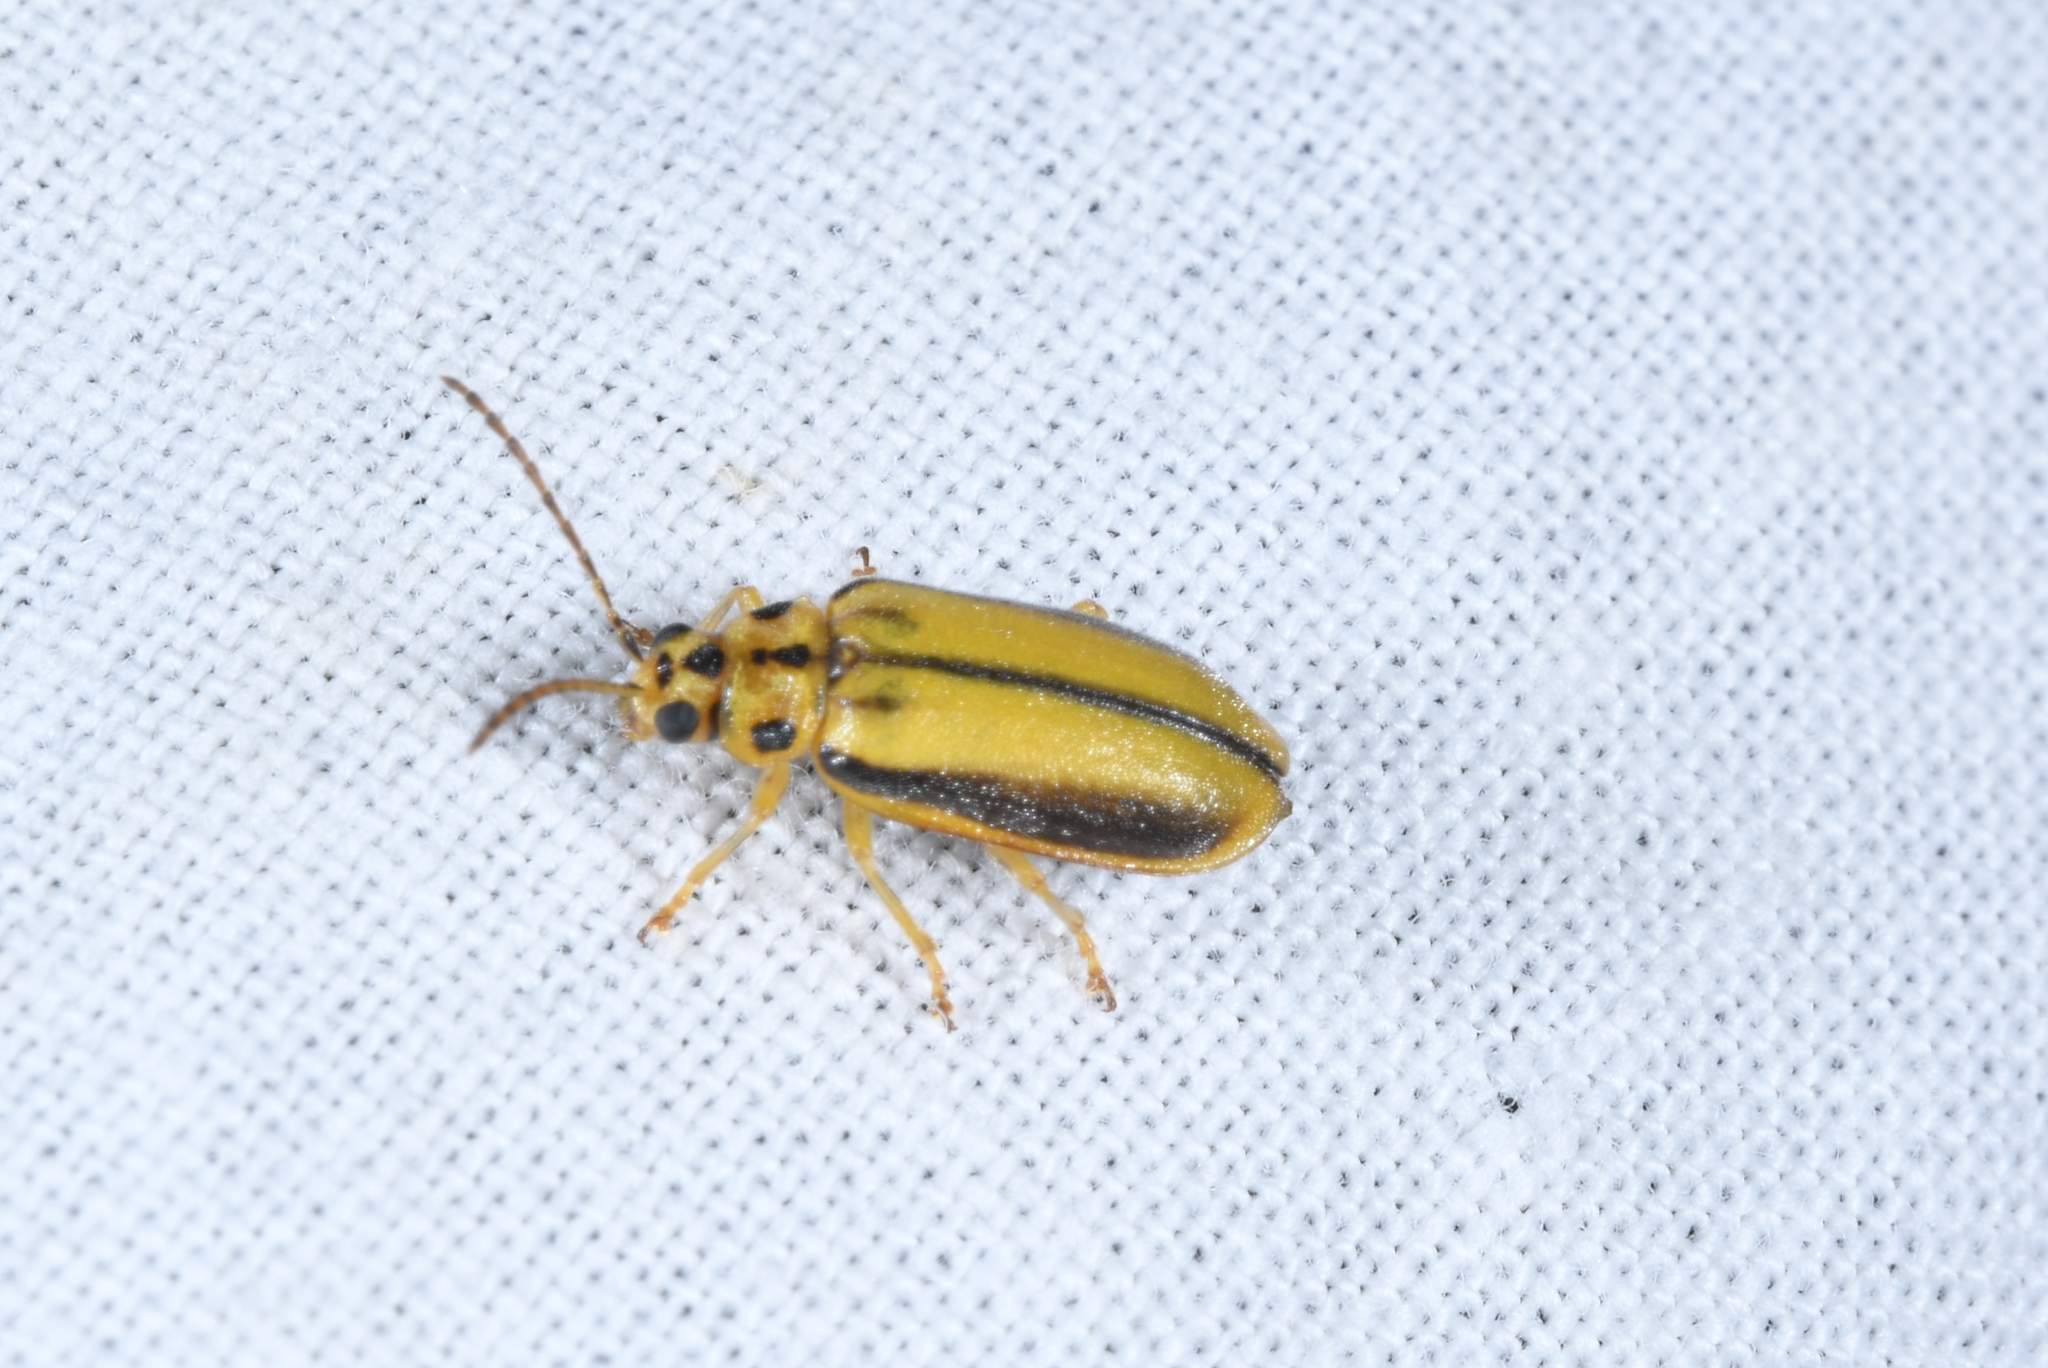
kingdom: Animalia
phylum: Arthropoda
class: Insecta
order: Coleoptera
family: Chrysomelidae
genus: Xanthogaleruca
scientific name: Xanthogaleruca luteola
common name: Elm leaf beetle
